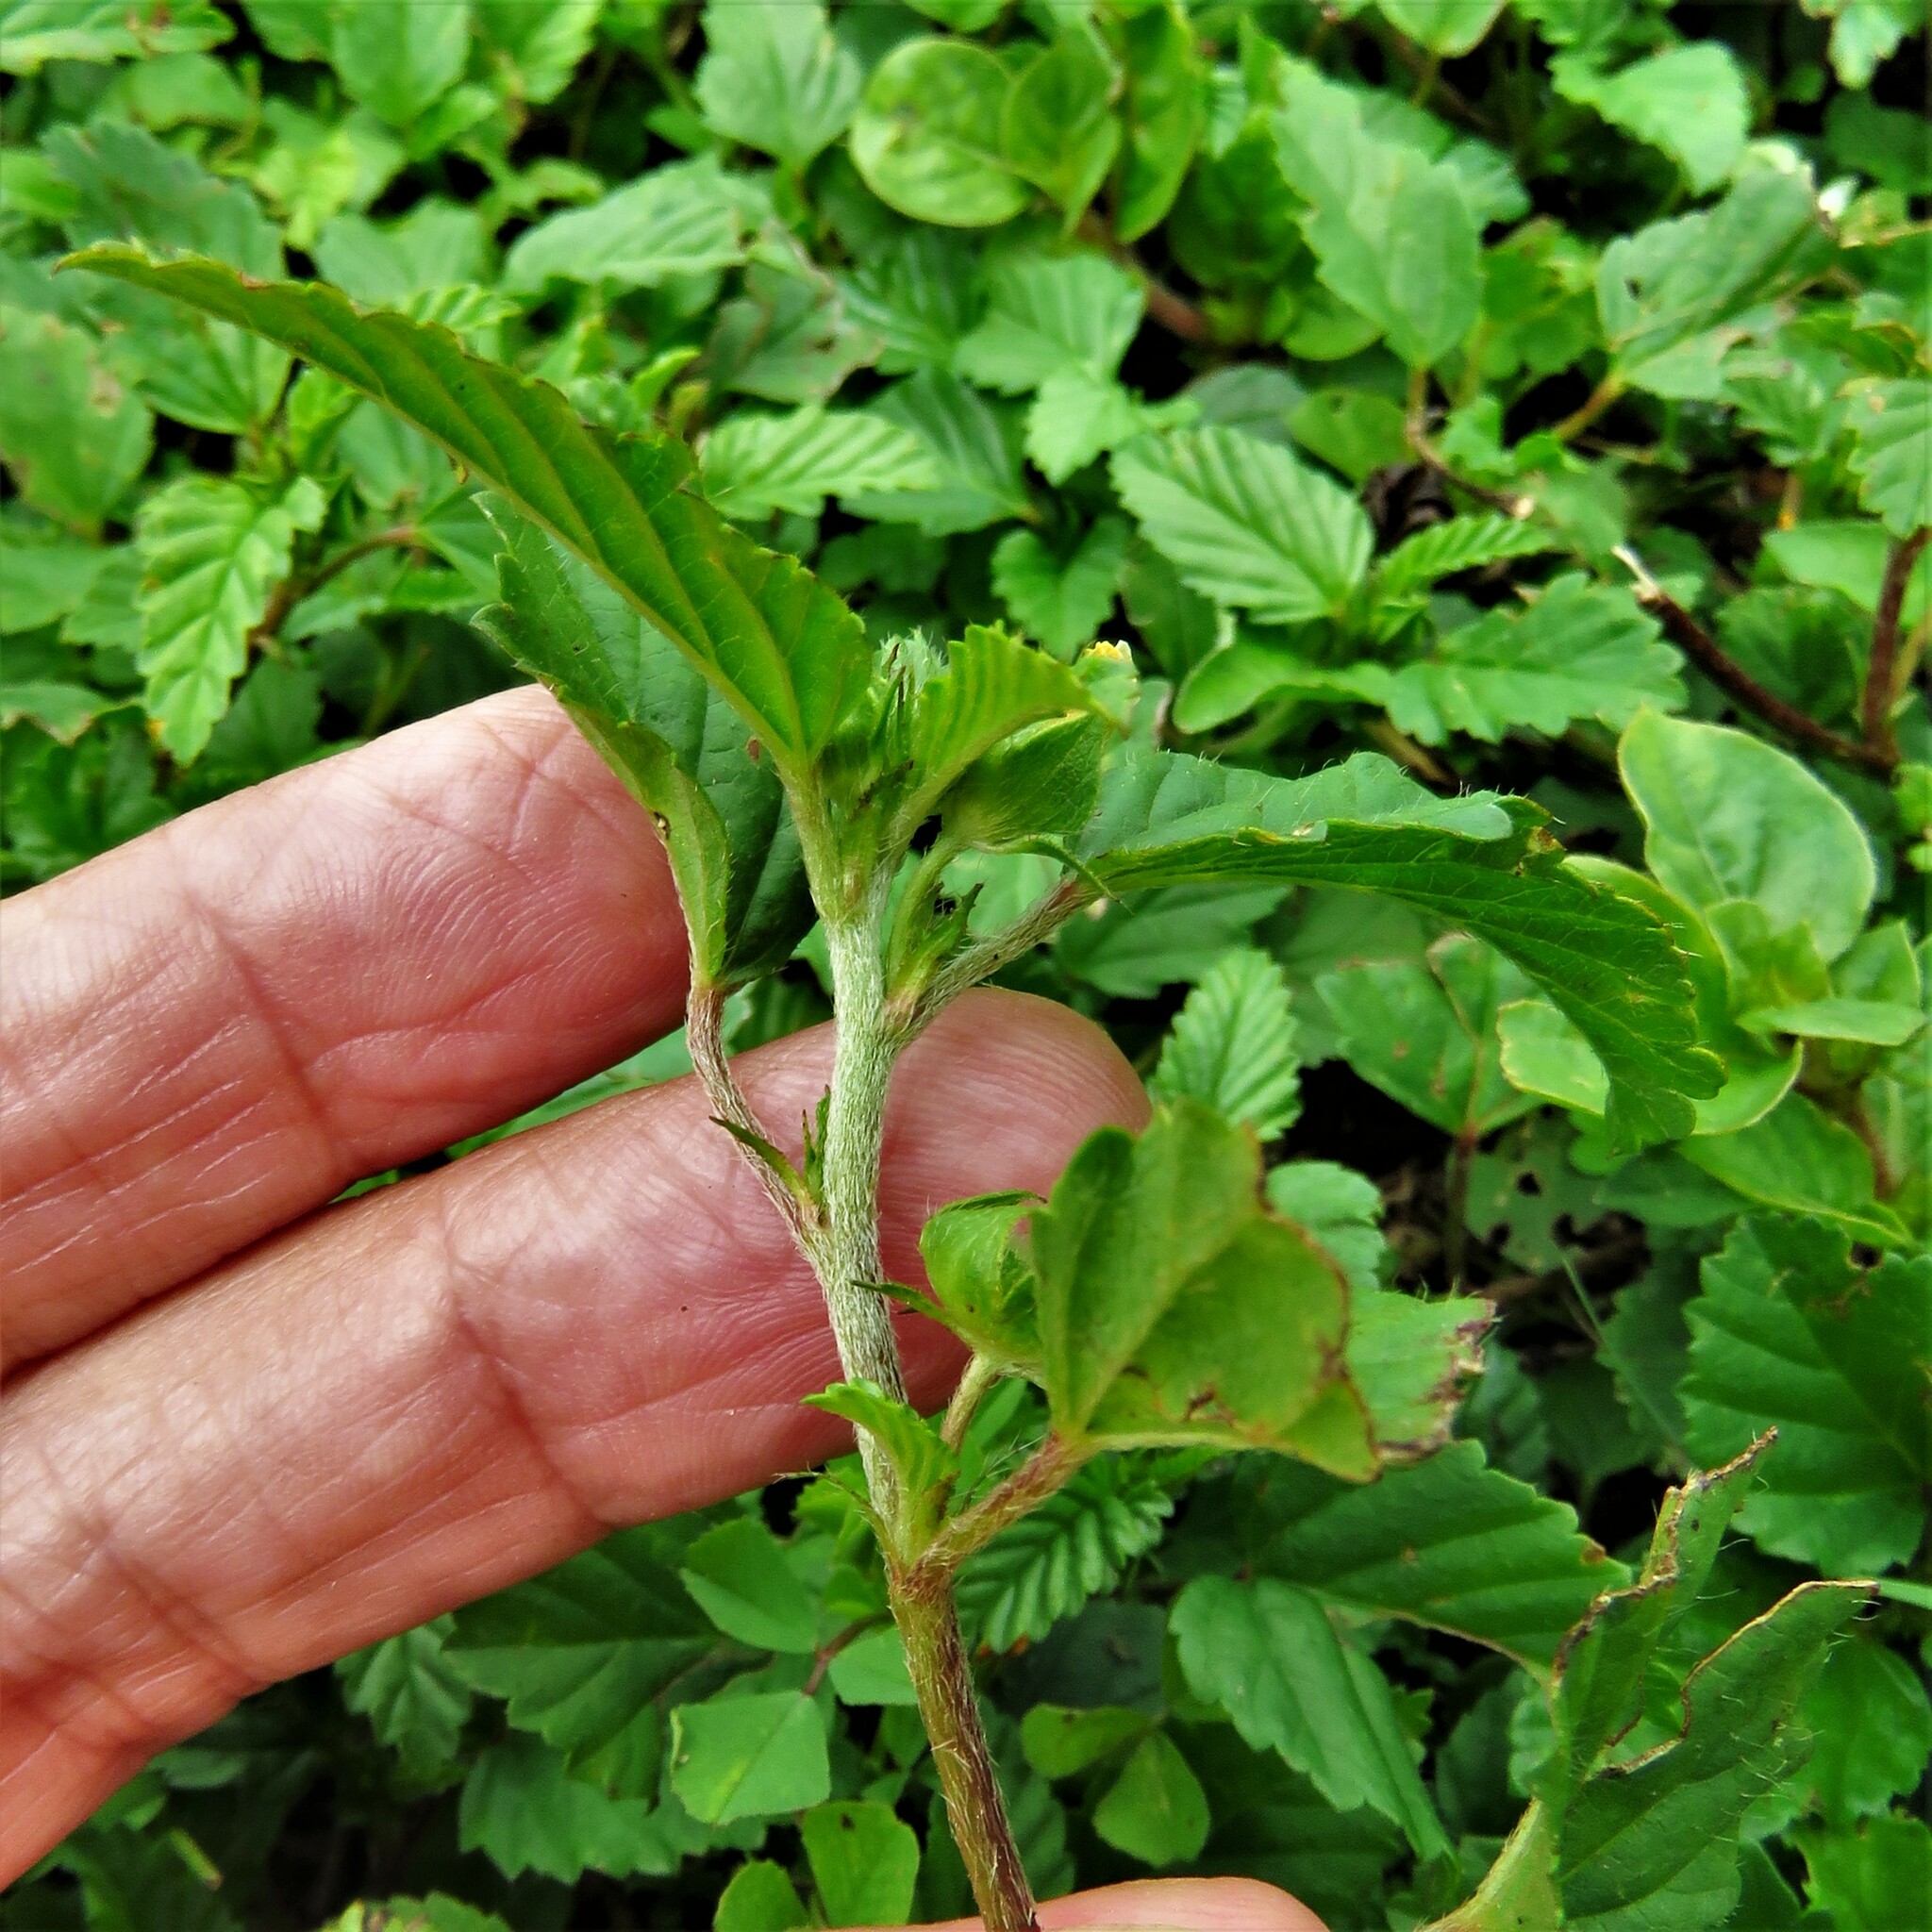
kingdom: Plantae
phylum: Tracheophyta
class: Magnoliopsida
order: Malvales
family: Malvaceae
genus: Malvastrum
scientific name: Malvastrum coromandelianum
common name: Threelobe false mallow
